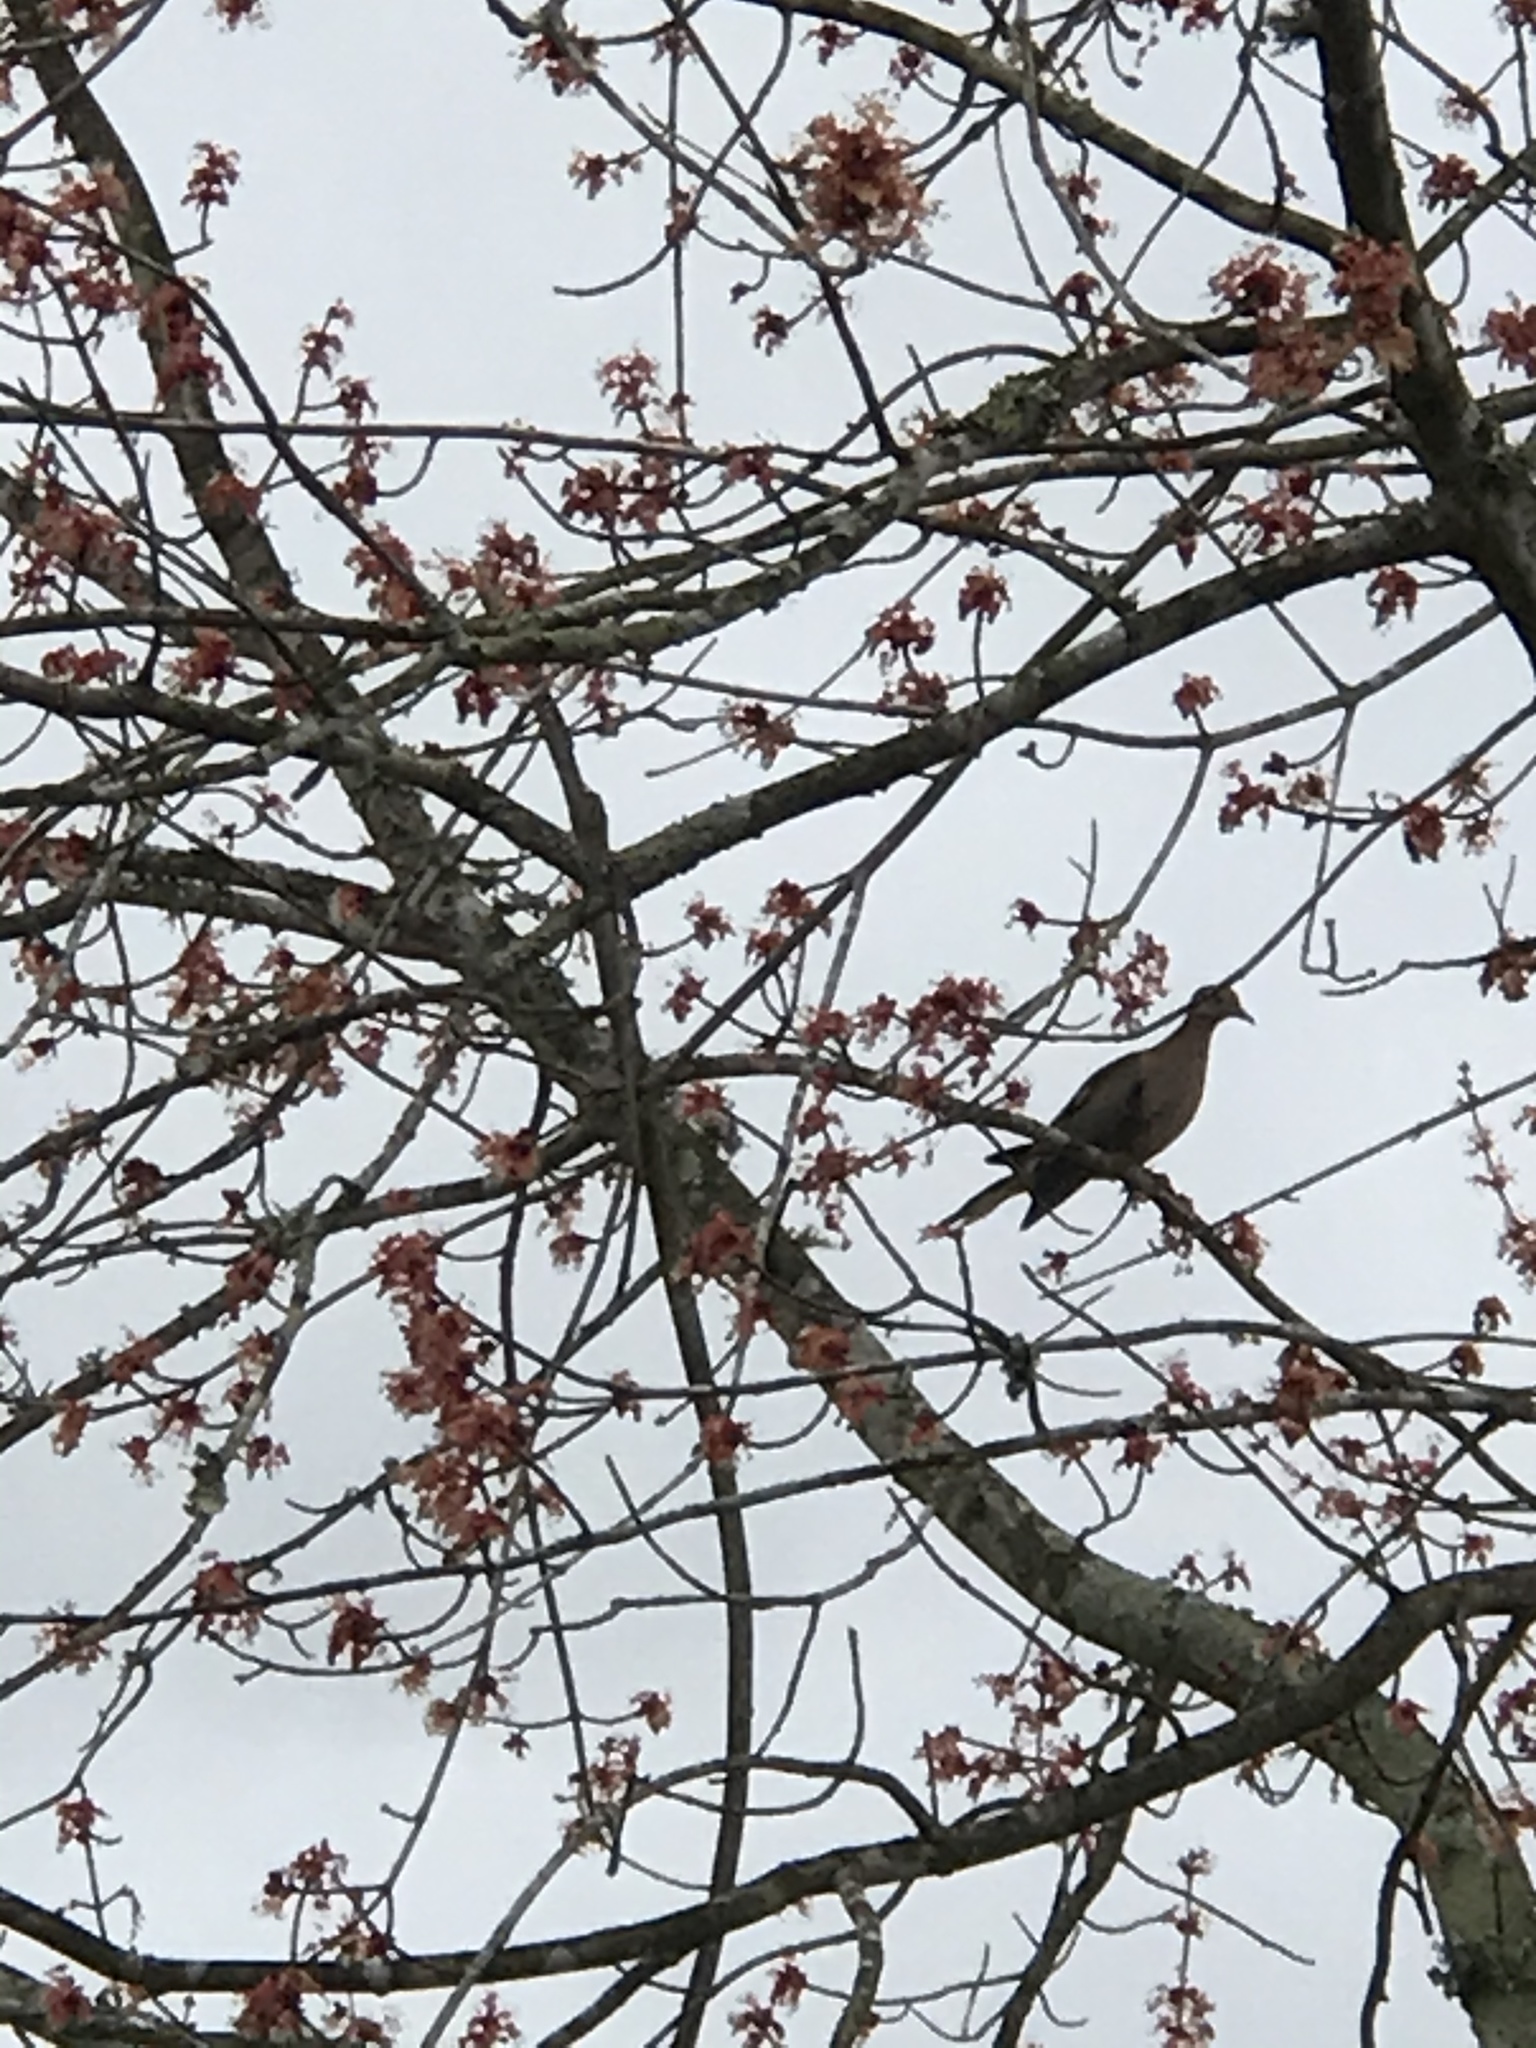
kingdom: Animalia
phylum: Chordata
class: Aves
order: Columbiformes
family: Columbidae
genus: Zenaida
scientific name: Zenaida macroura
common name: Mourning dove
